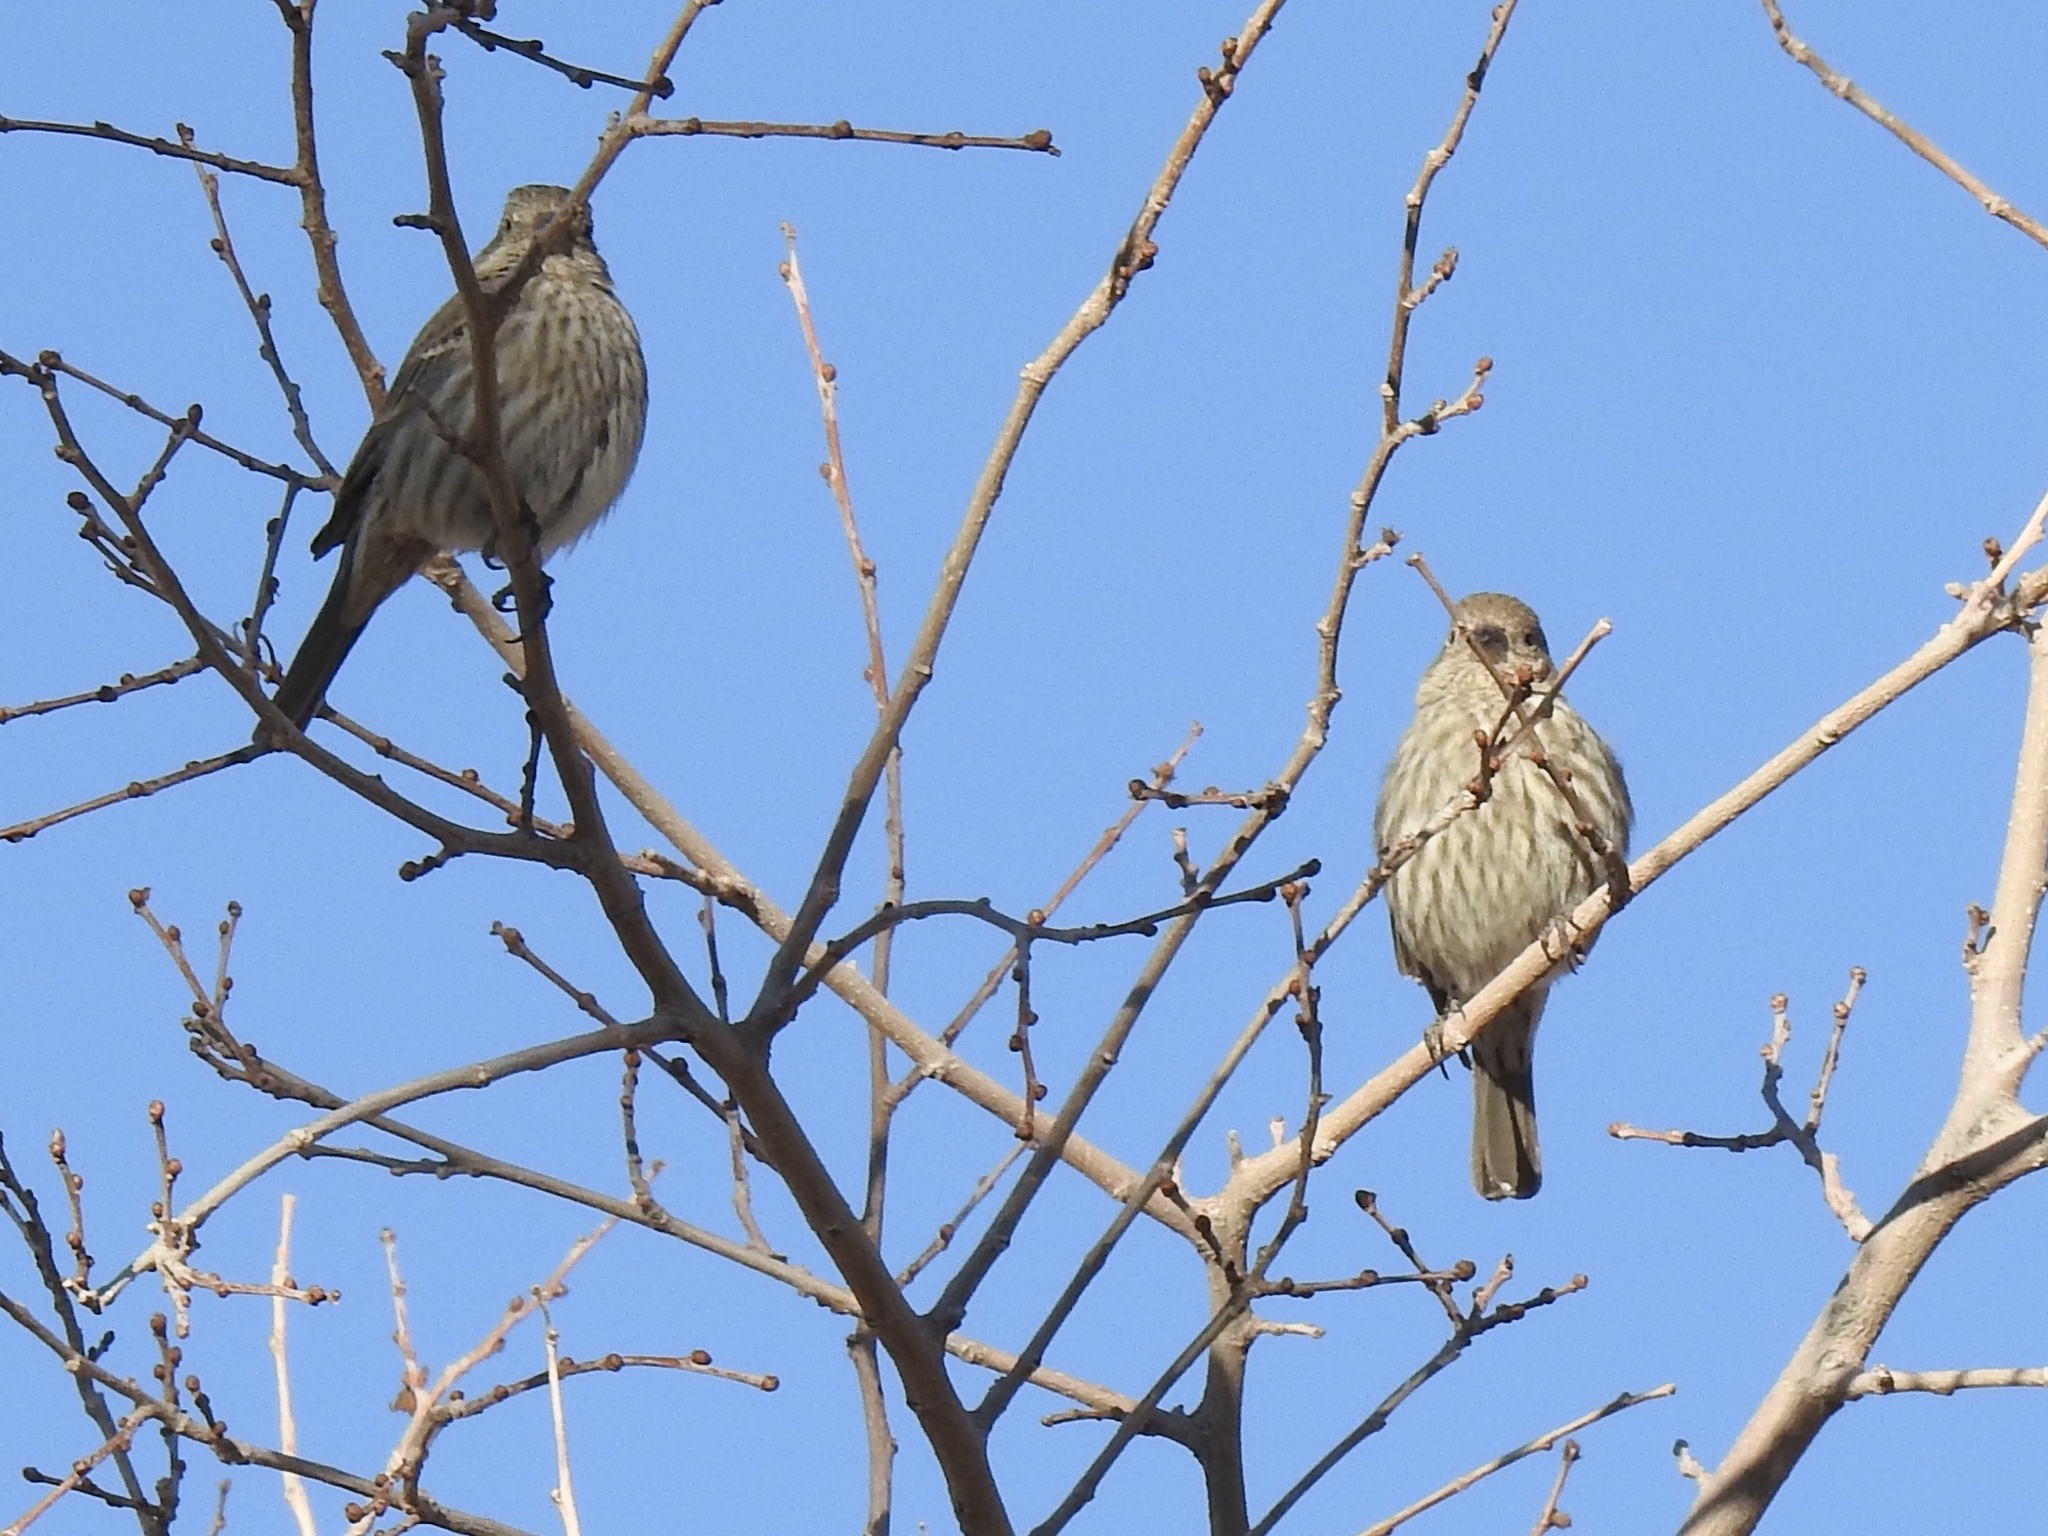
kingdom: Animalia
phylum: Chordata
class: Aves
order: Passeriformes
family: Fringillidae
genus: Haemorhous
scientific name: Haemorhous mexicanus
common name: House finch
